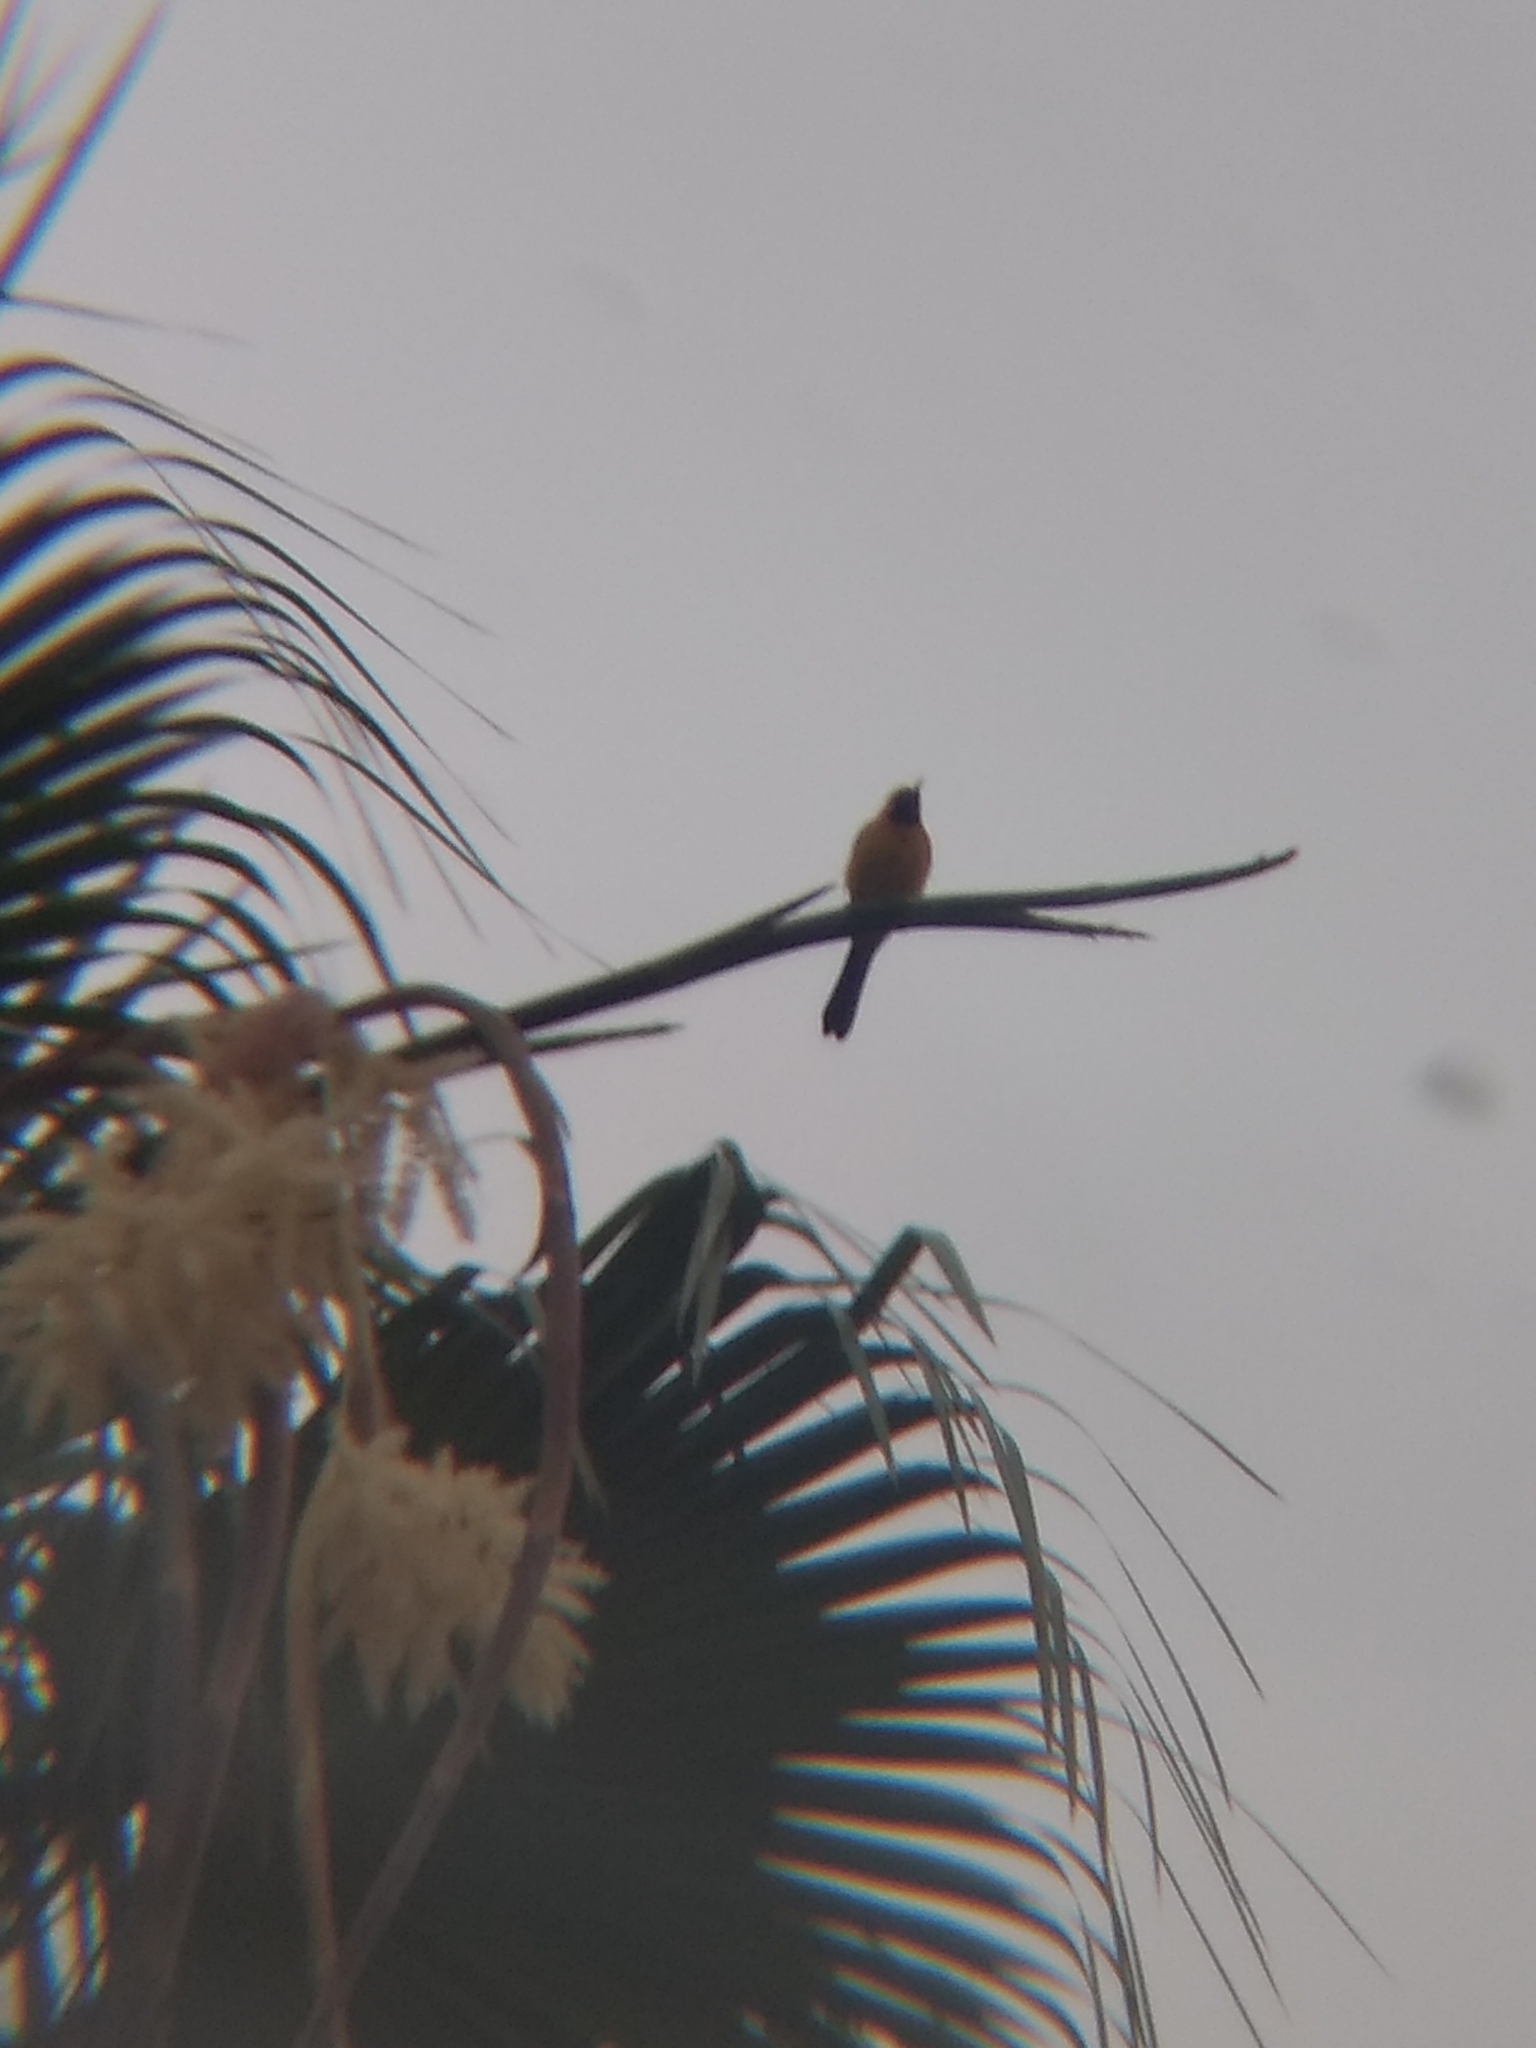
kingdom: Animalia
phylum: Chordata
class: Aves
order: Passeriformes
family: Icteridae
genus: Icterus
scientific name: Icterus cucullatus
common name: Hooded oriole
